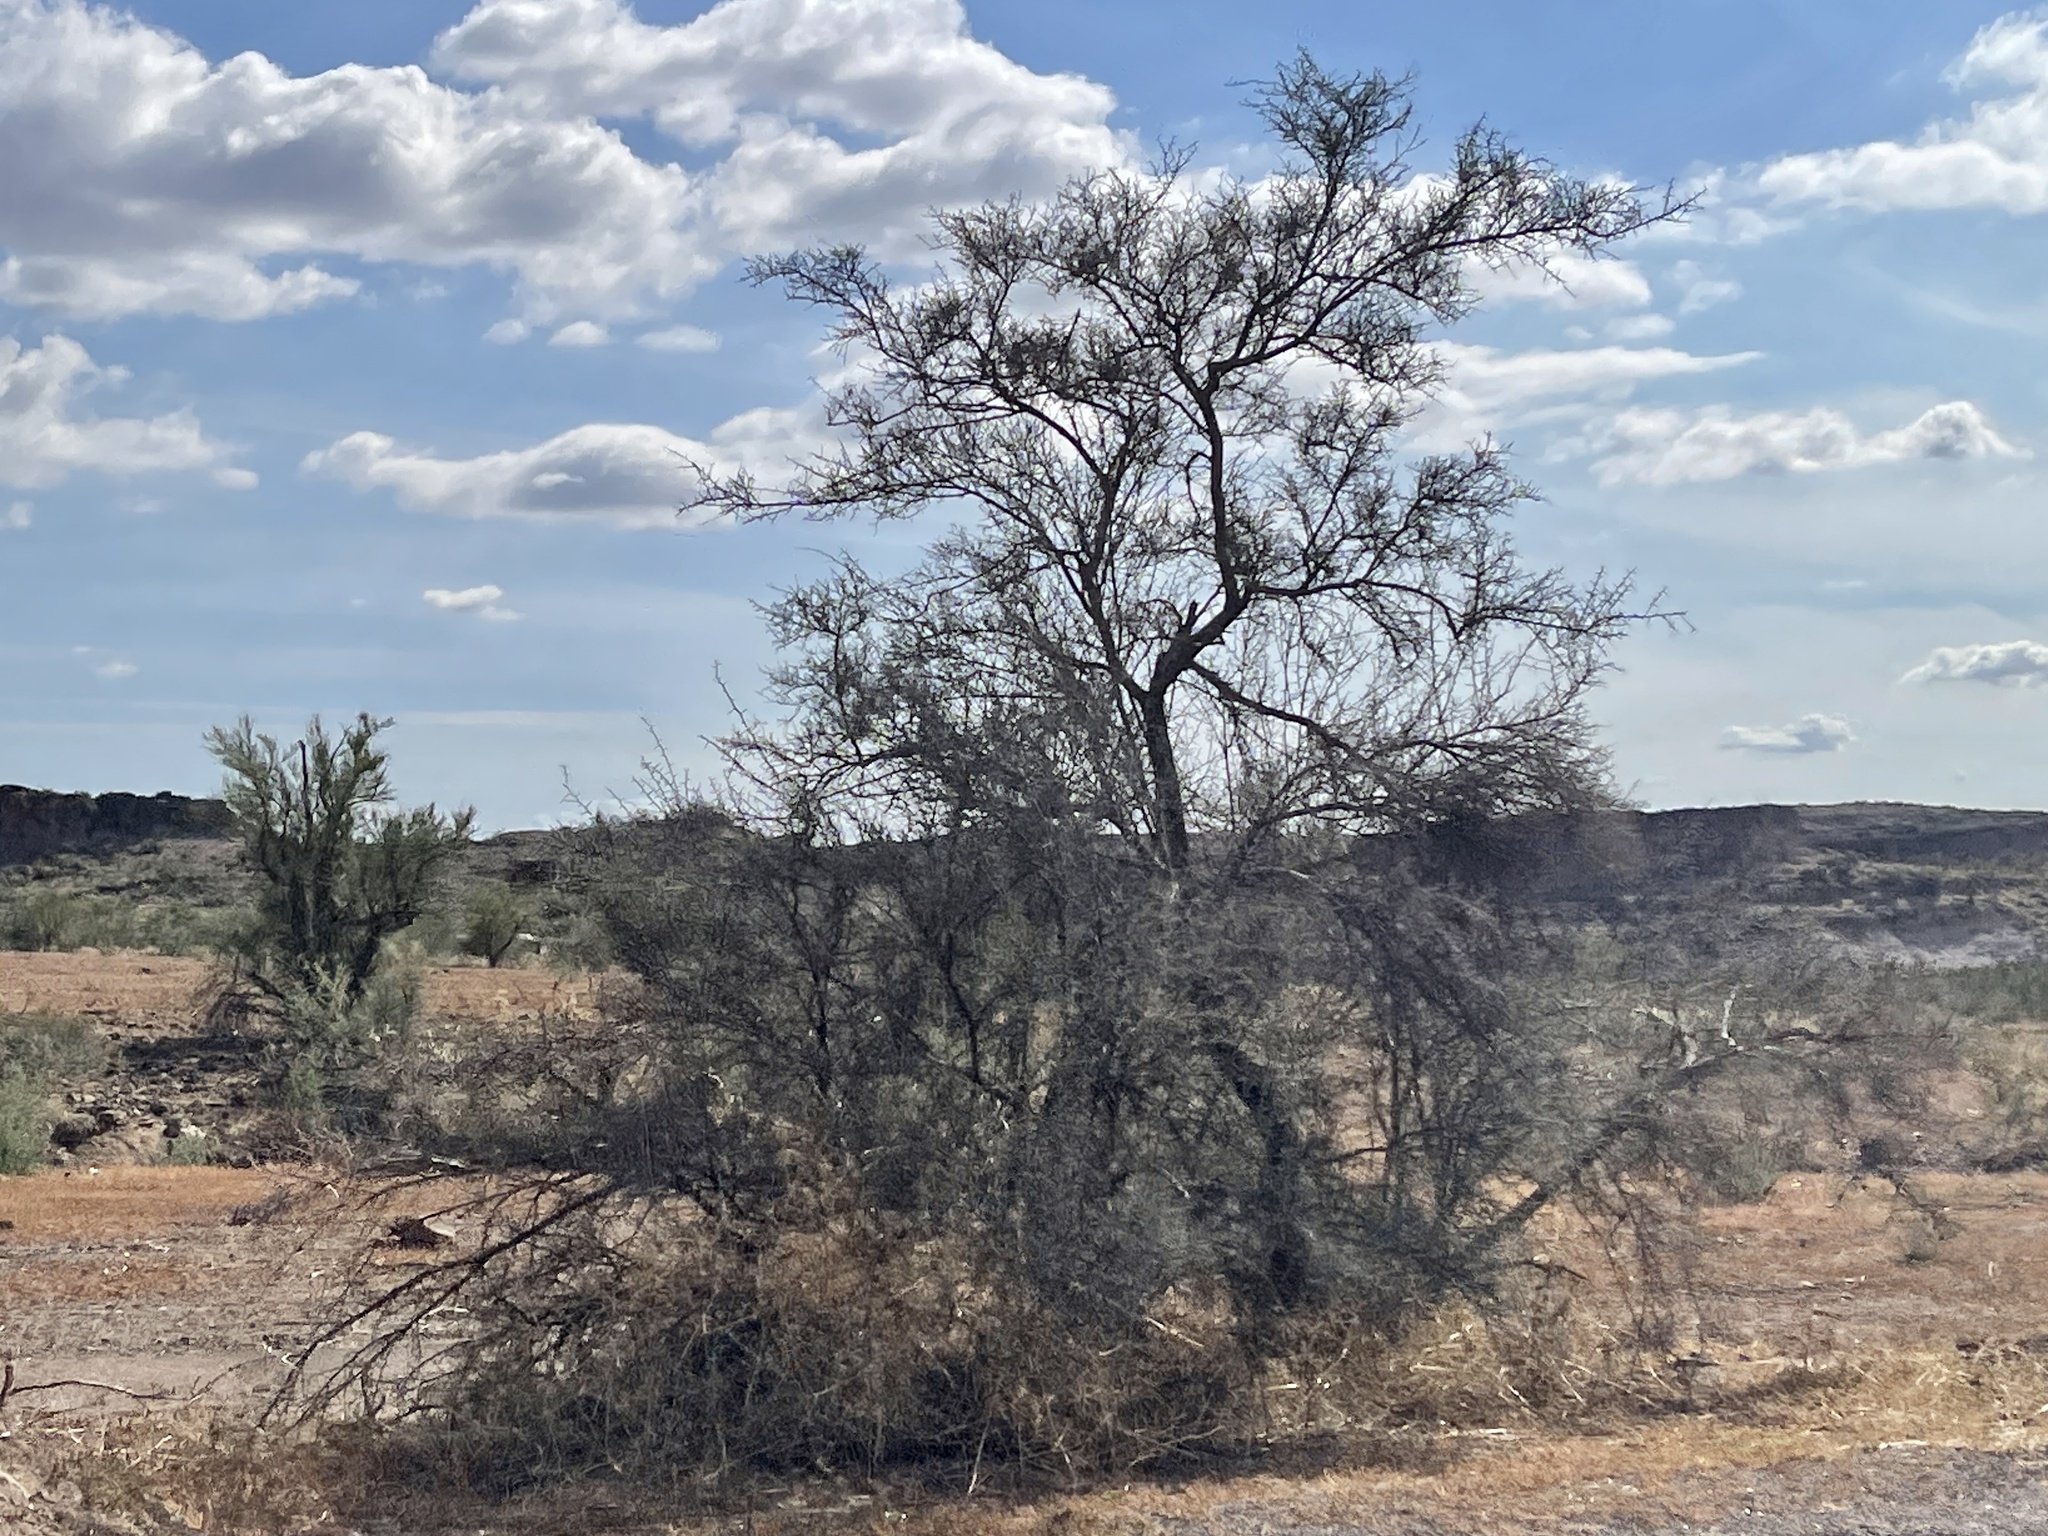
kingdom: Plantae
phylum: Tracheophyta
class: Magnoliopsida
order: Brassicales
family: Koeberliniaceae
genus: Koeberlinia
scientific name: Koeberlinia spinosa
